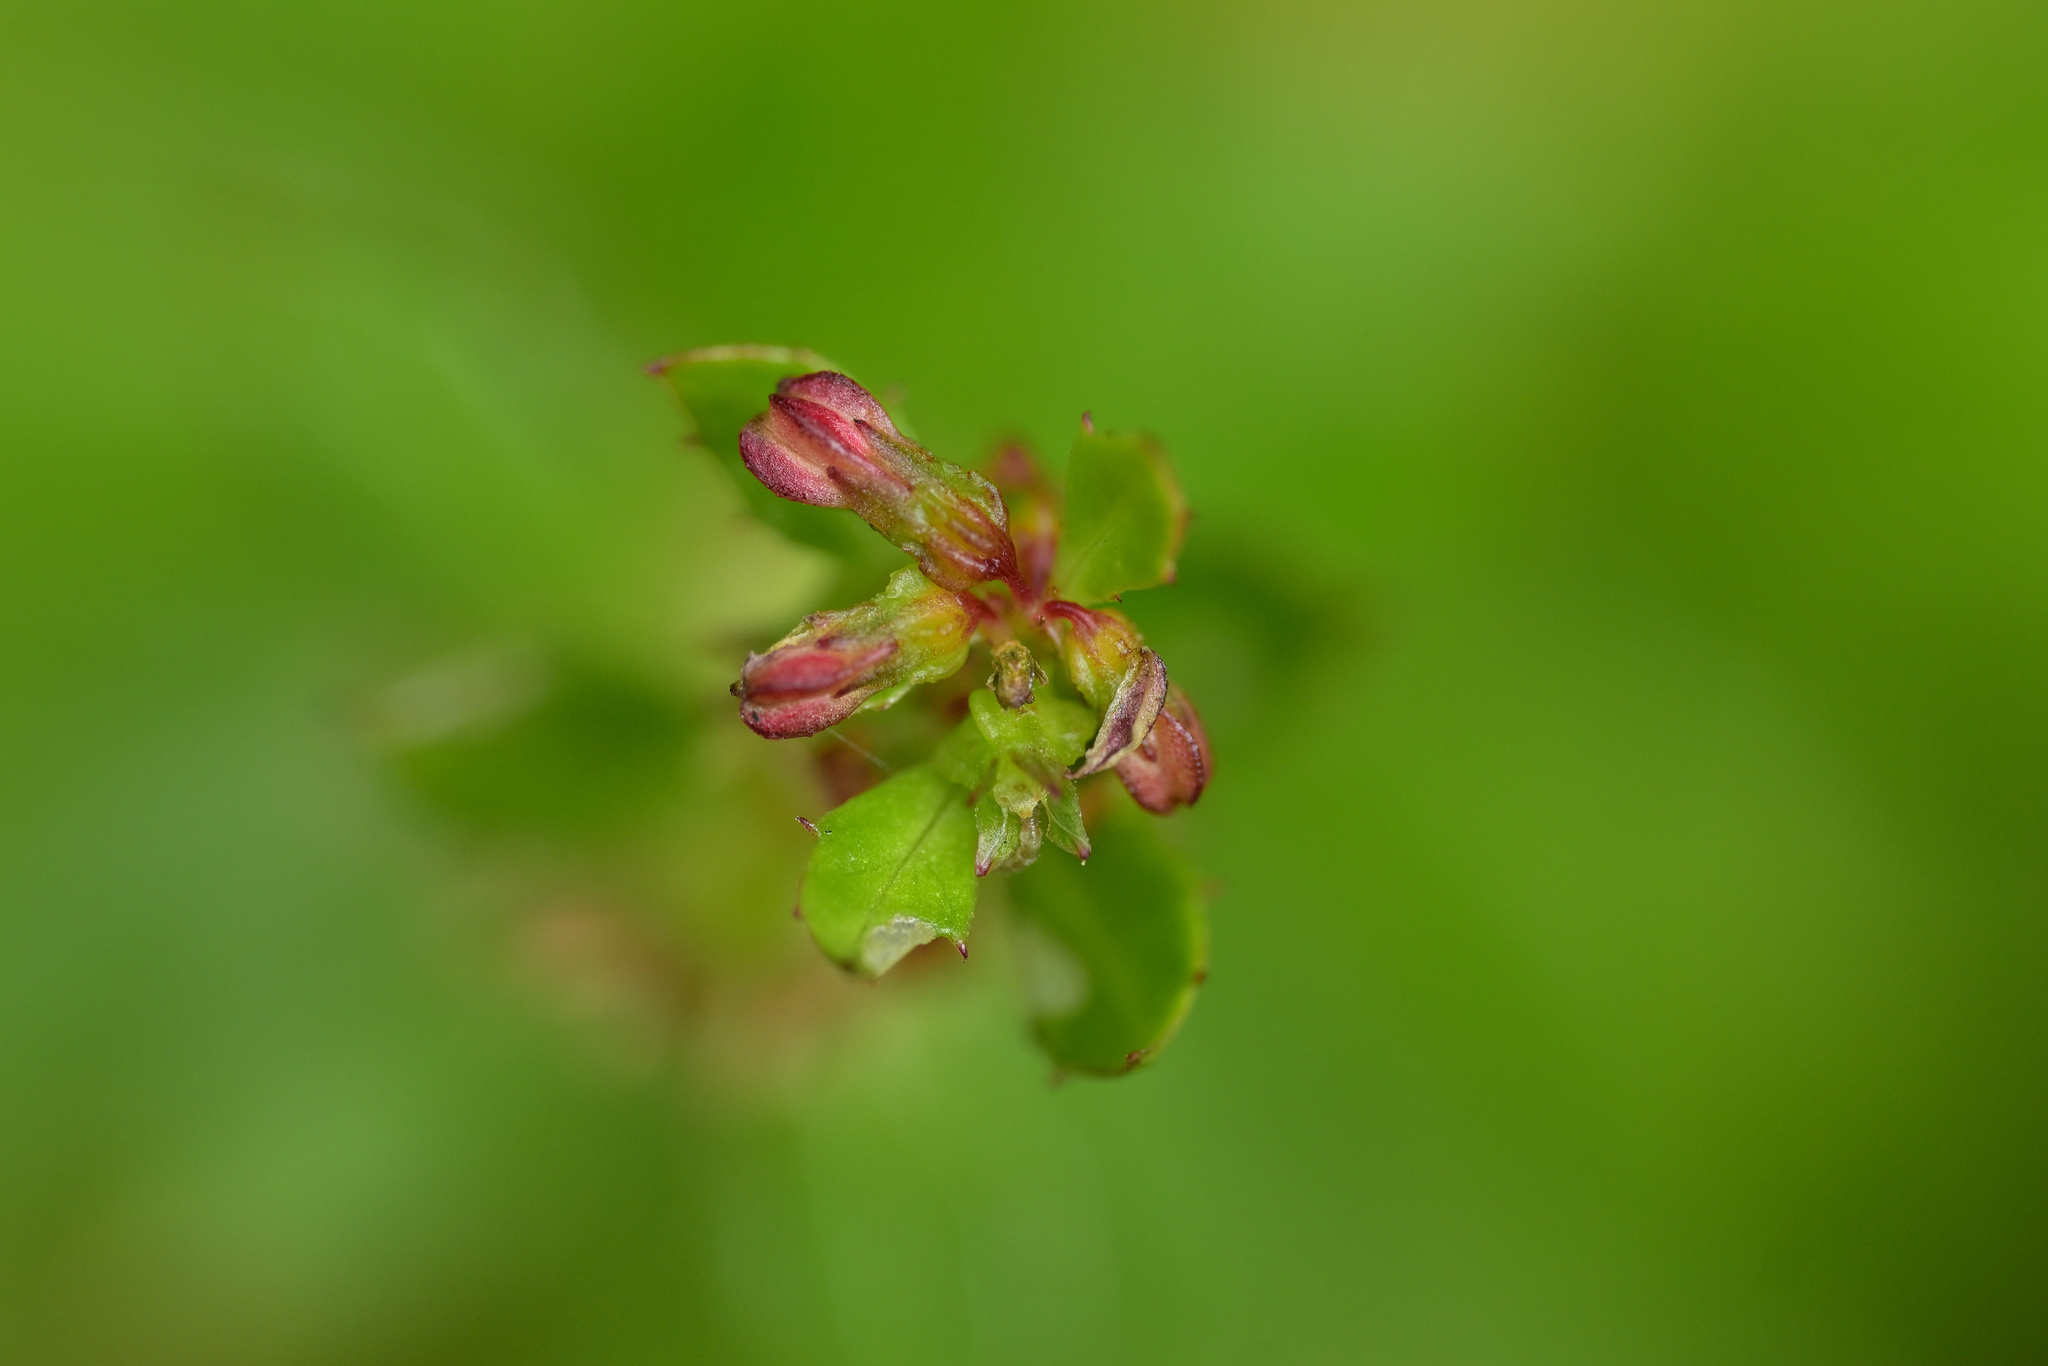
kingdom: Plantae
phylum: Tracheophyta
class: Magnoliopsida
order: Saxifragales
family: Haloragaceae
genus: Haloragis
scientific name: Haloragis erecta
